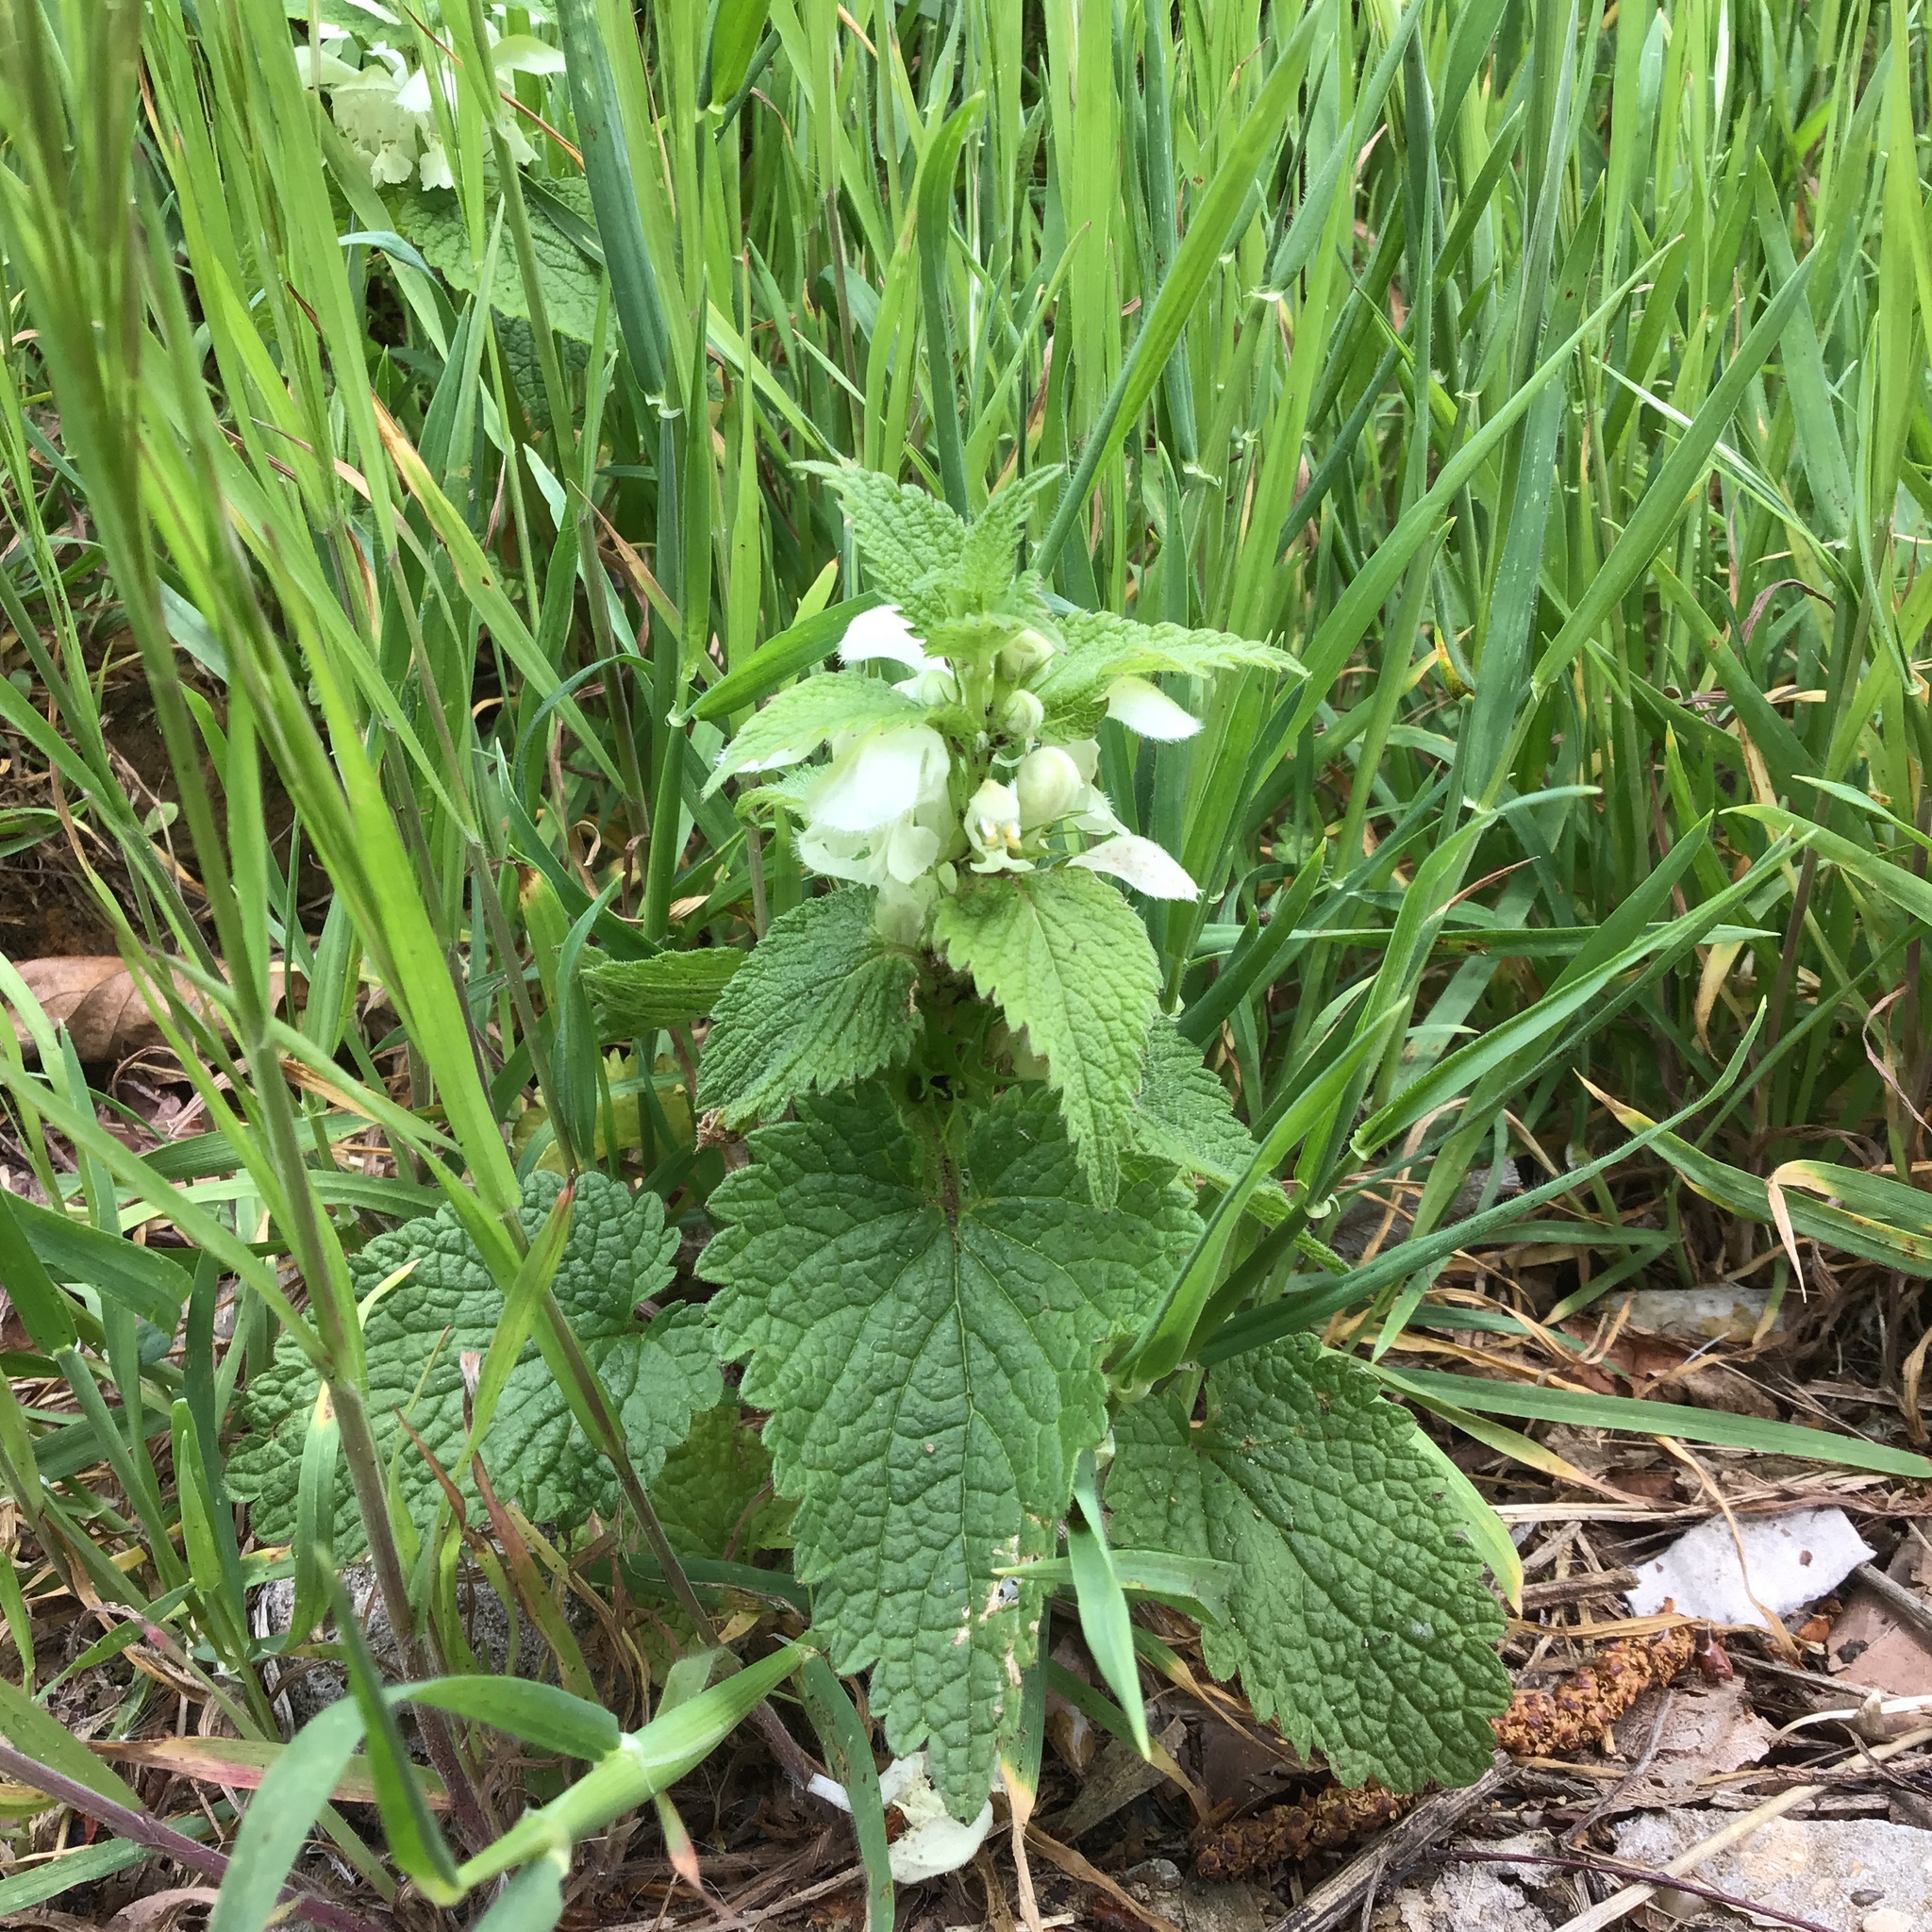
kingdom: Plantae
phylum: Tracheophyta
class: Magnoliopsida
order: Lamiales
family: Lamiaceae
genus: Lamium
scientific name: Lamium album
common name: White dead-nettle
